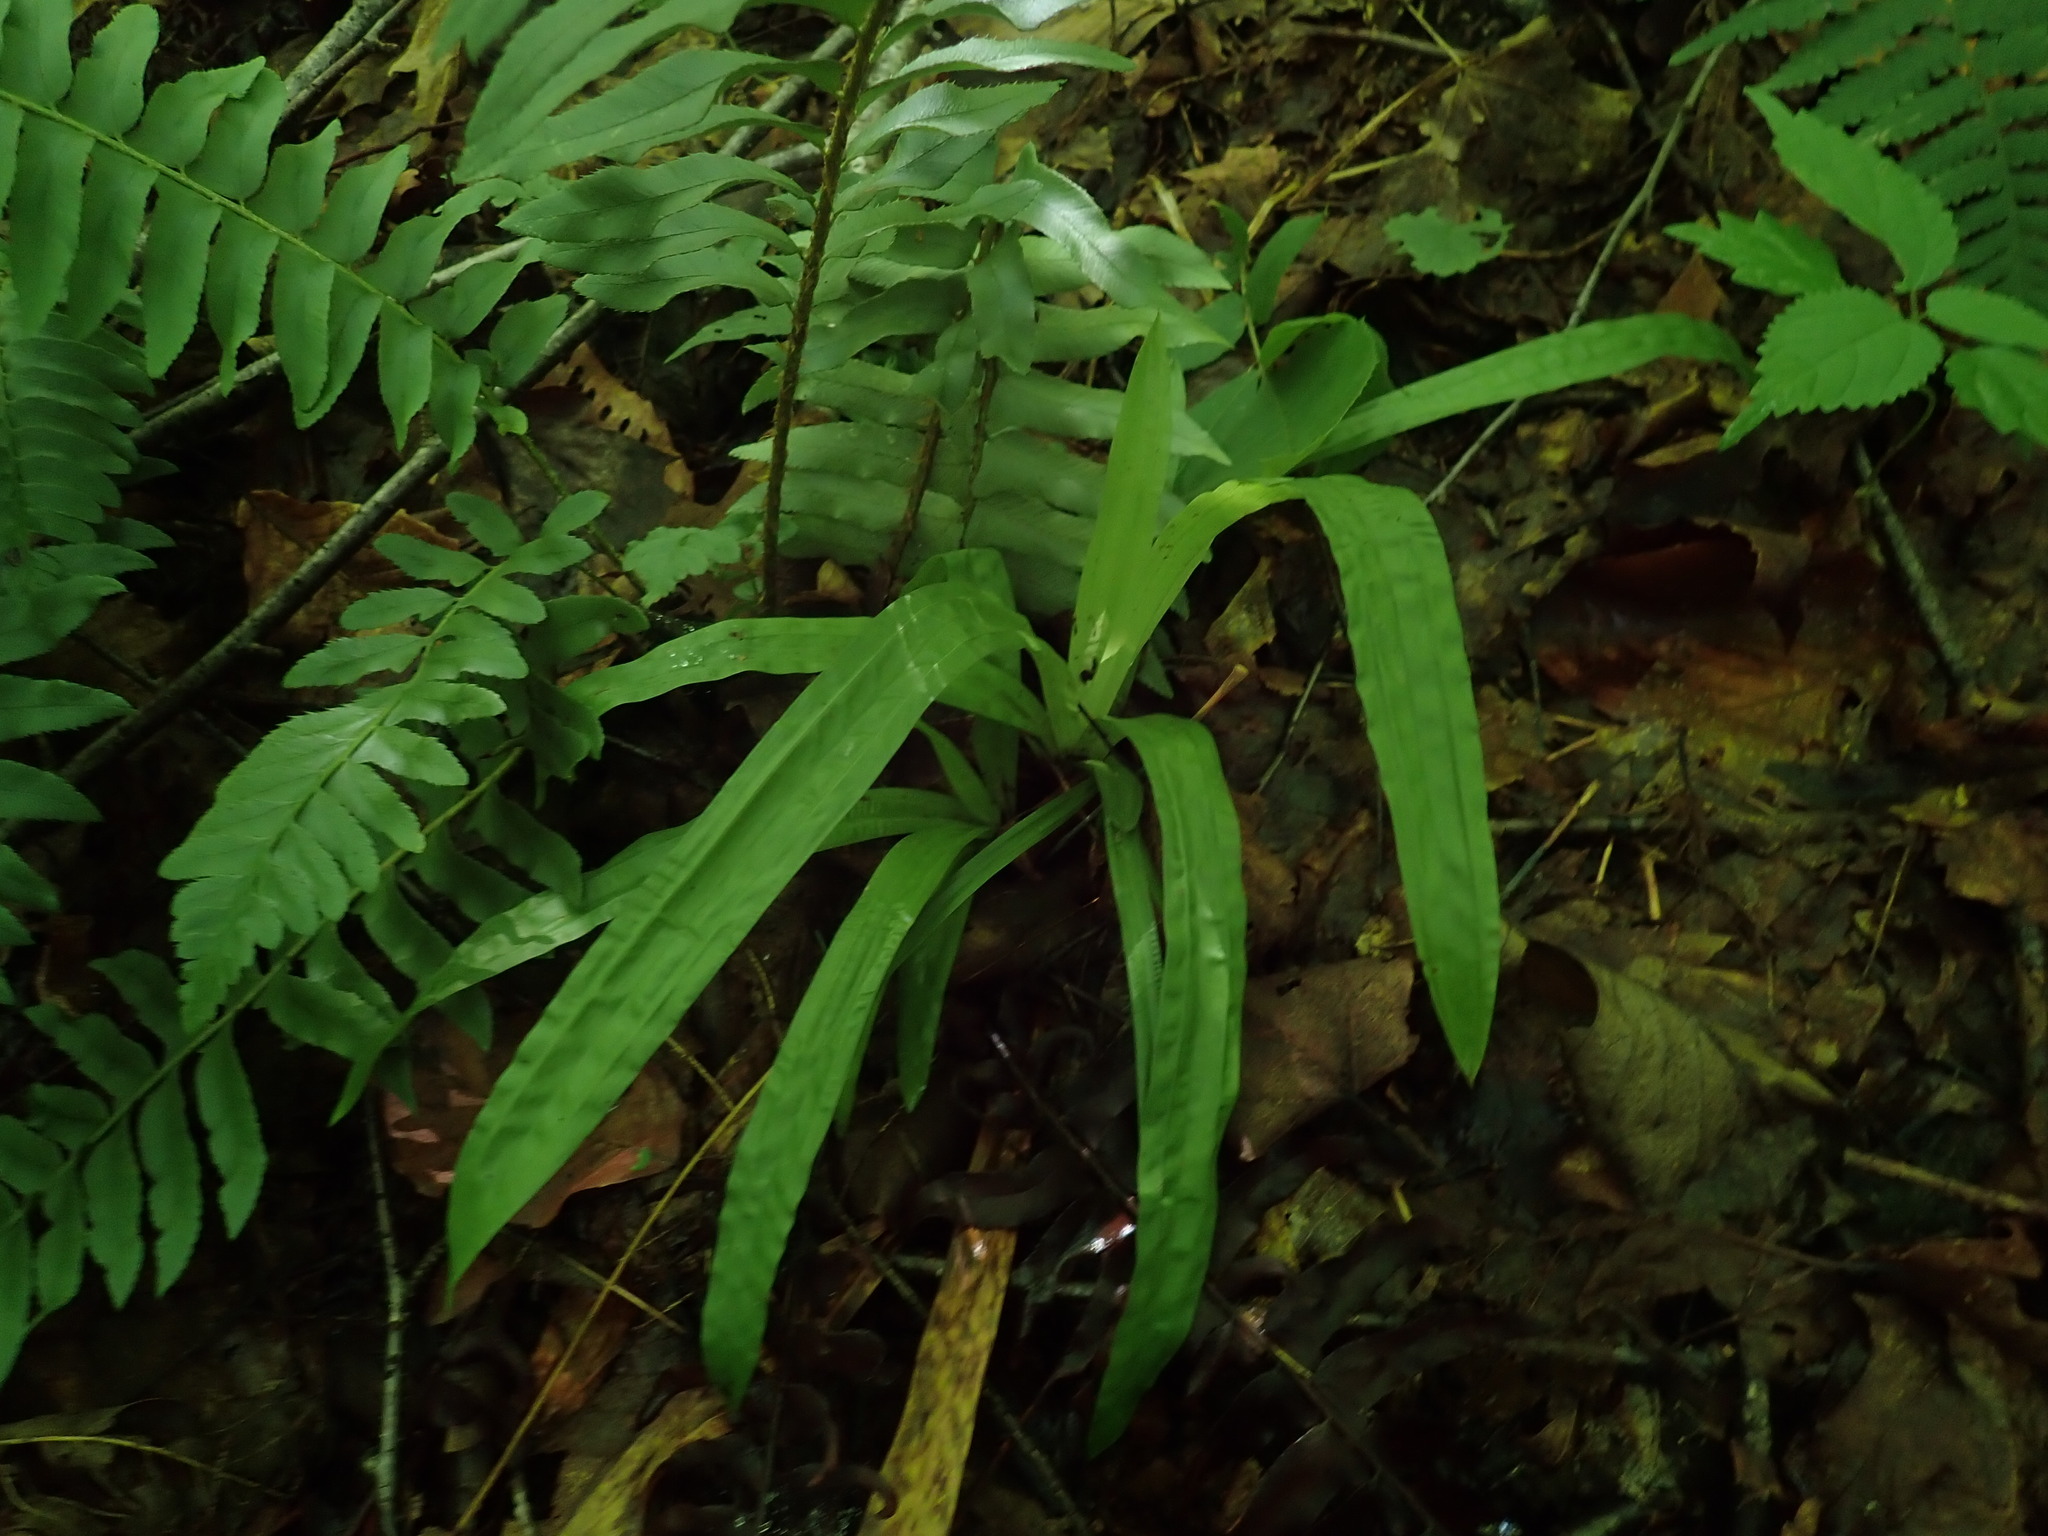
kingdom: Plantae
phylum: Tracheophyta
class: Liliopsida
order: Poales
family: Cyperaceae
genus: Carex
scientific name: Carex plantaginea
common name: Plantain-leaved sedge
